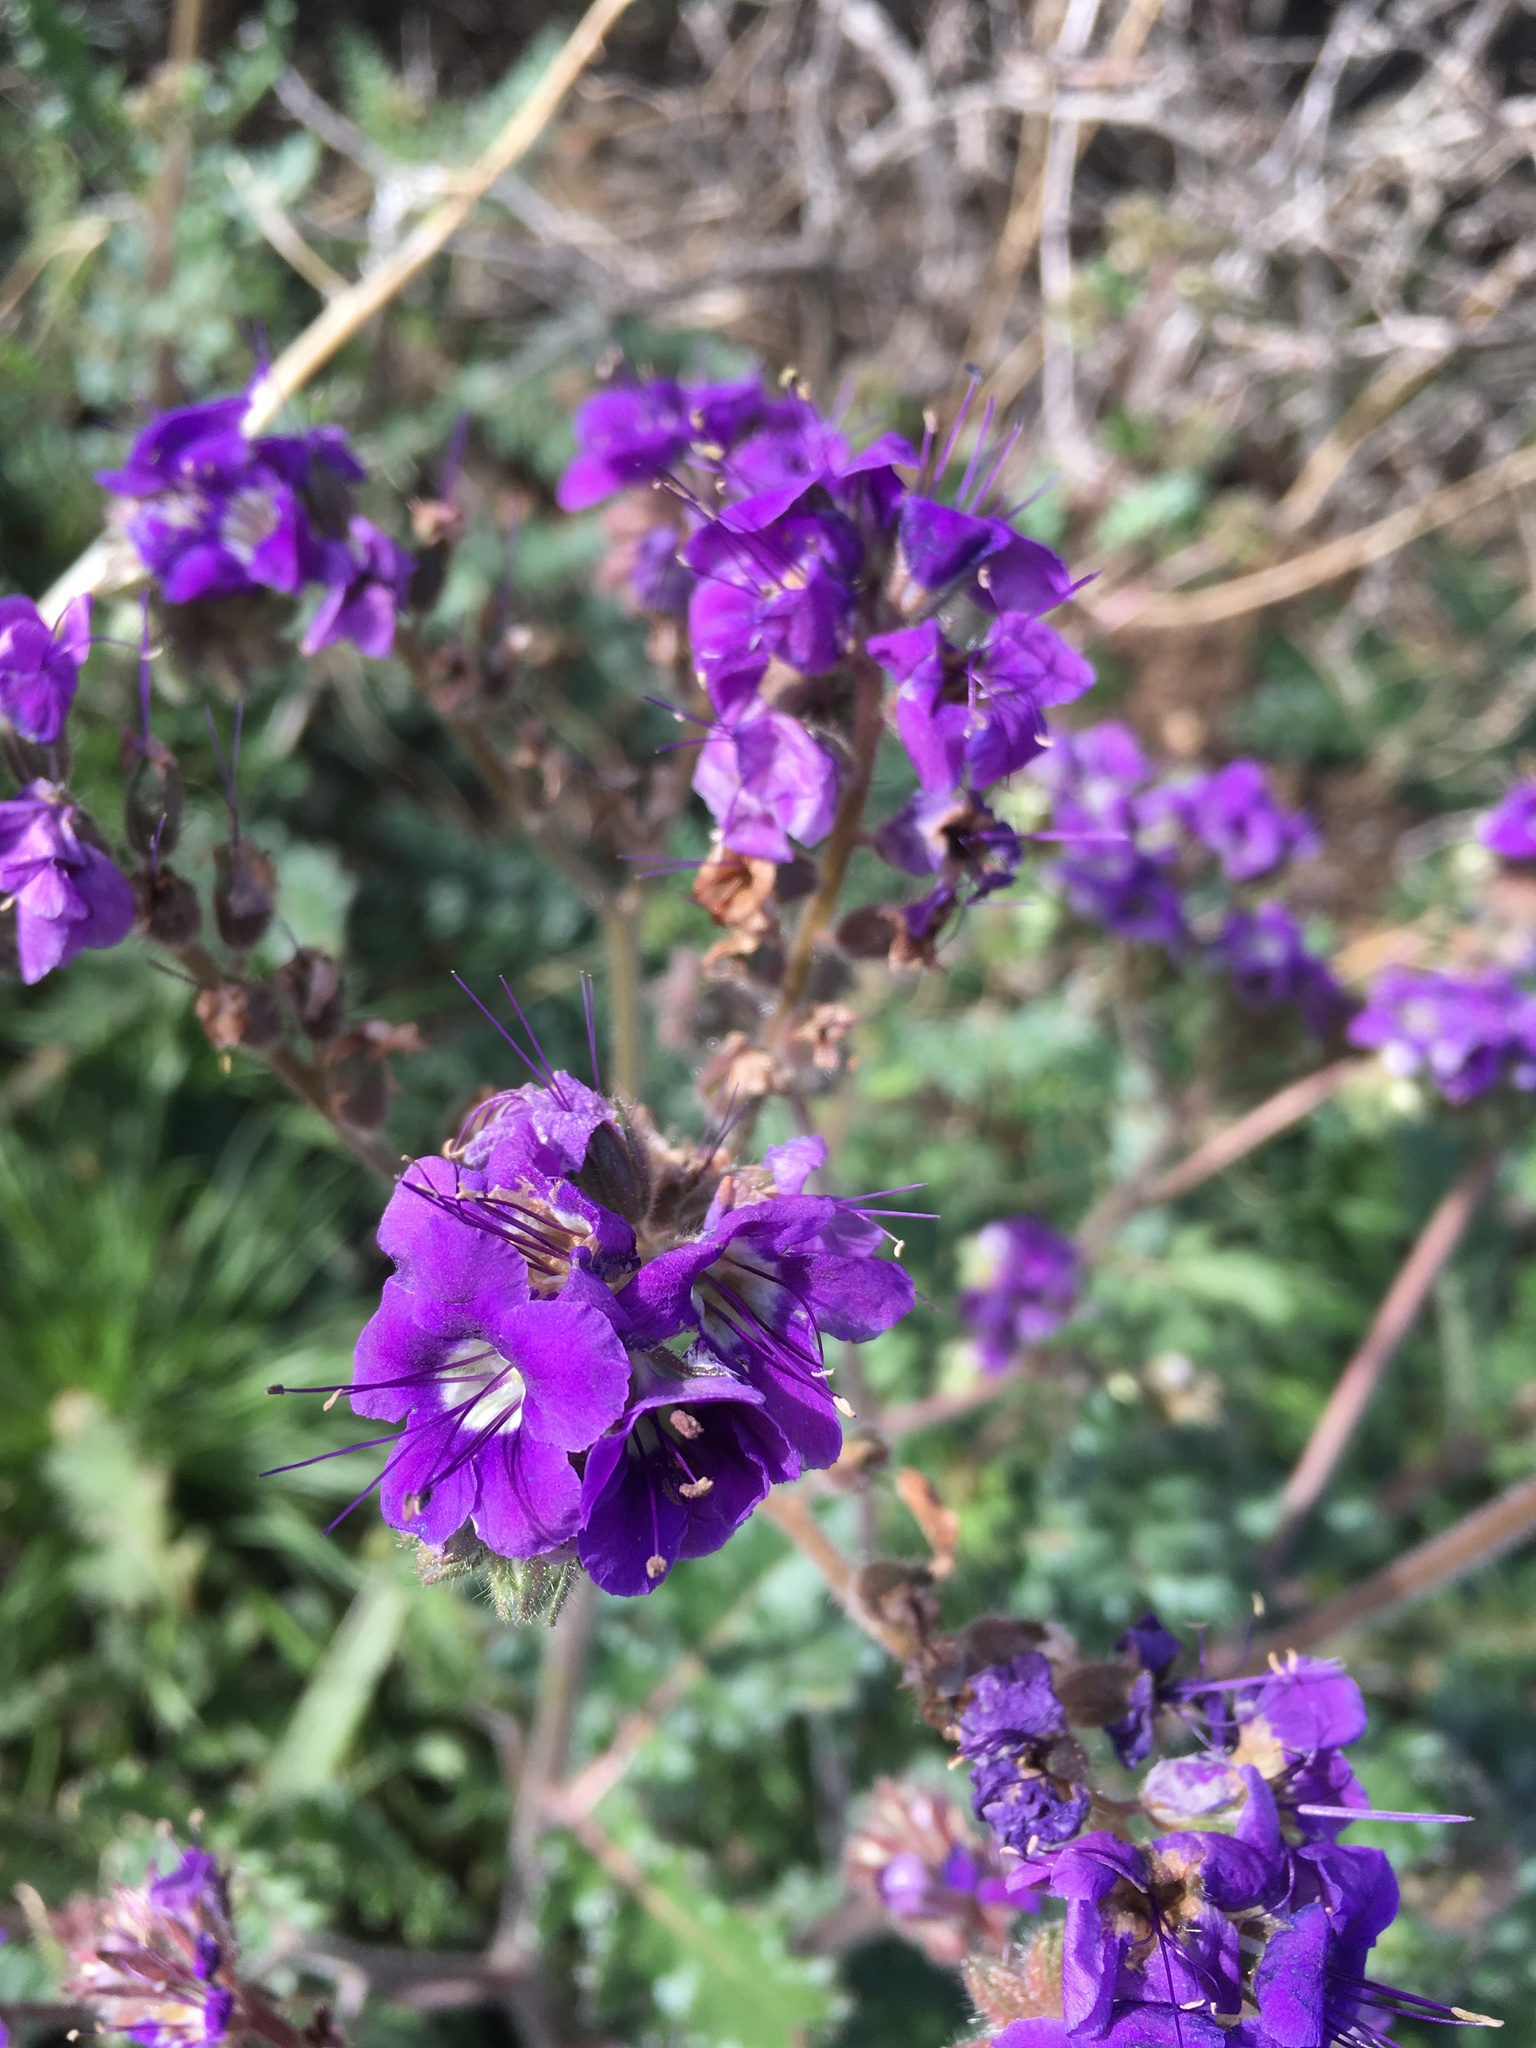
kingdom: Plantae
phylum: Tracheophyta
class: Magnoliopsida
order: Boraginales
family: Hydrophyllaceae
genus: Phacelia
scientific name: Phacelia crenulata
